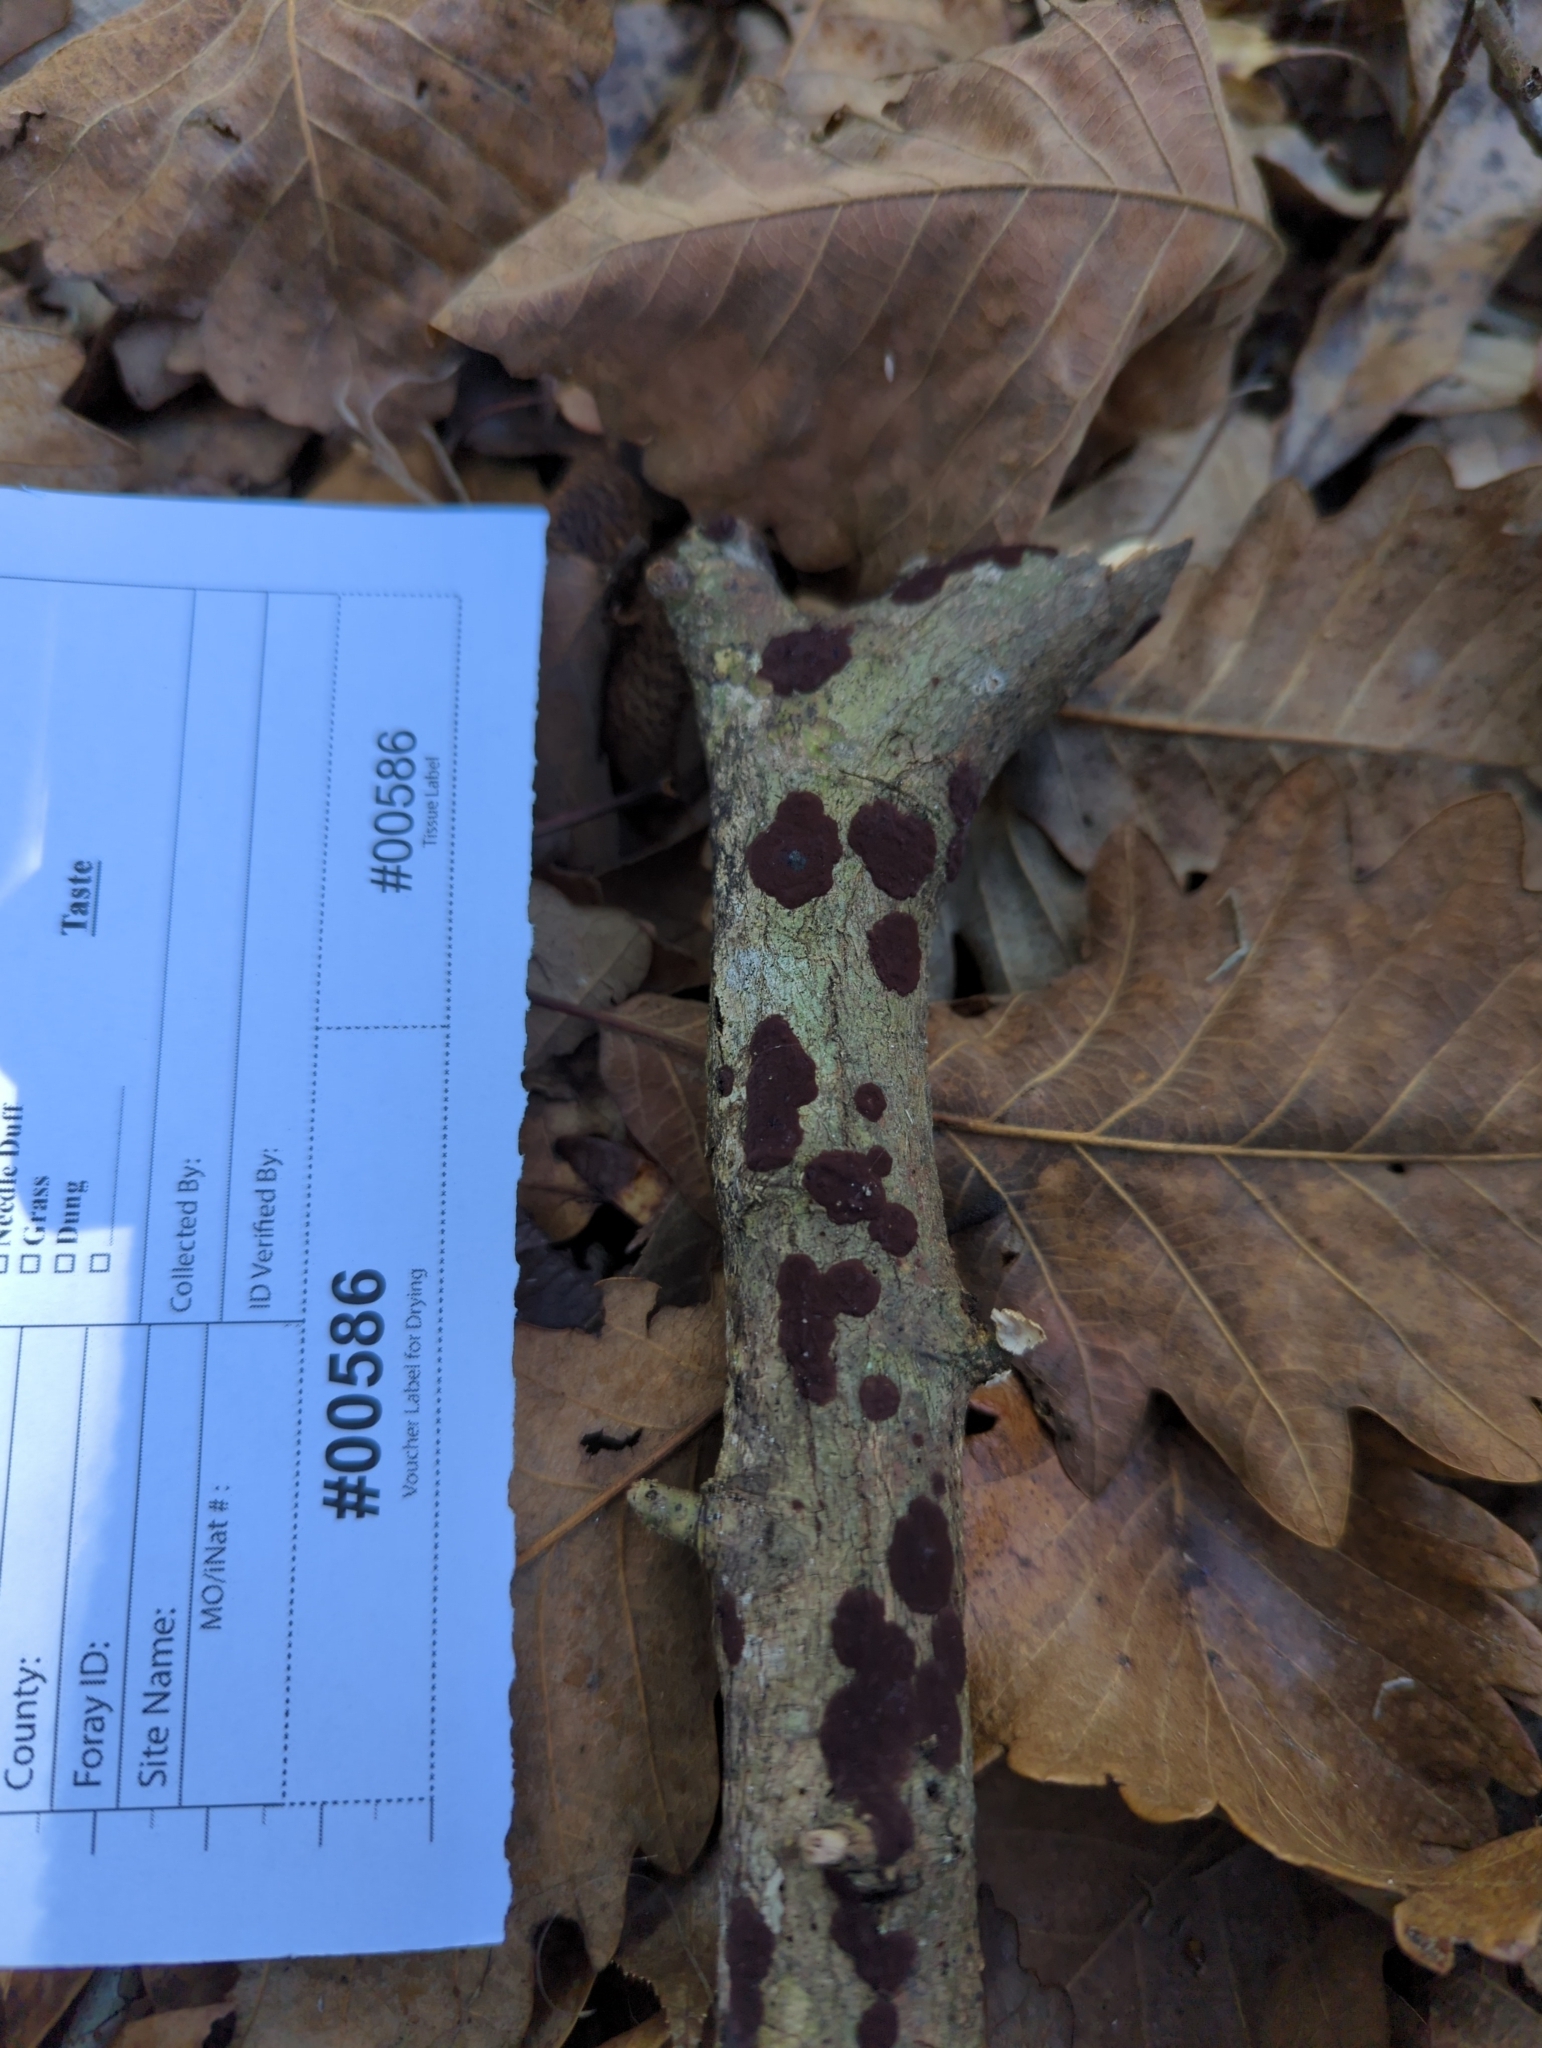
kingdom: Fungi
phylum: Ascomycota
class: Sordariomycetes
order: Xylariales
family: Hypoxylaceae
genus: Hypoxylon
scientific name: Hypoxylon rubiginosum
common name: Rusty woodwart
